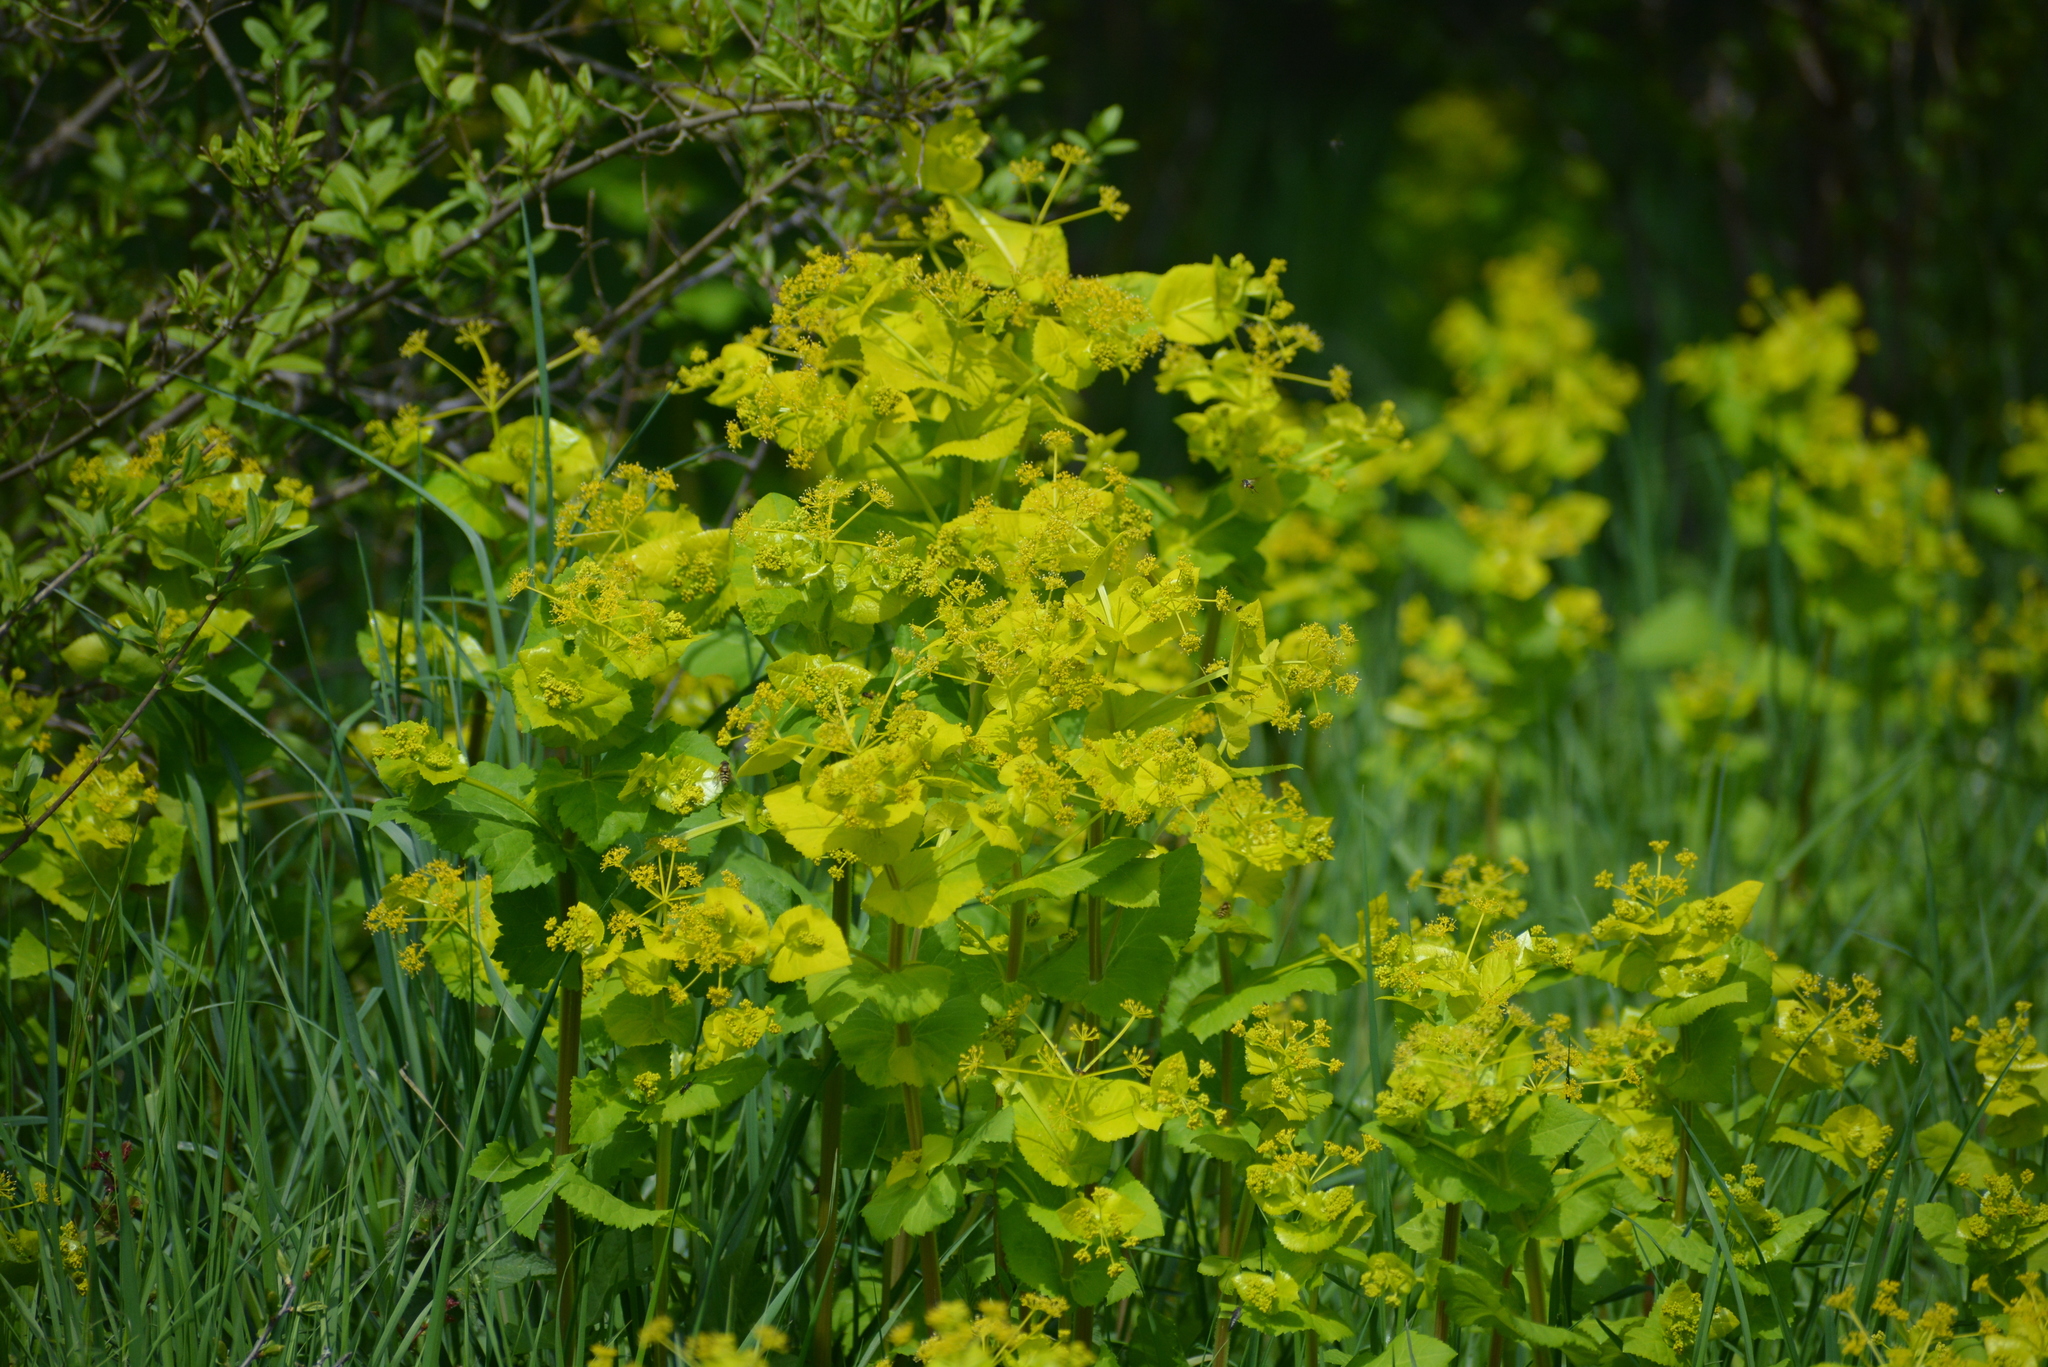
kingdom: Plantae
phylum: Tracheophyta
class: Magnoliopsida
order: Apiales
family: Apiaceae
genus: Smyrnium
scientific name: Smyrnium perfoliatum
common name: Perfoliate alexanders
